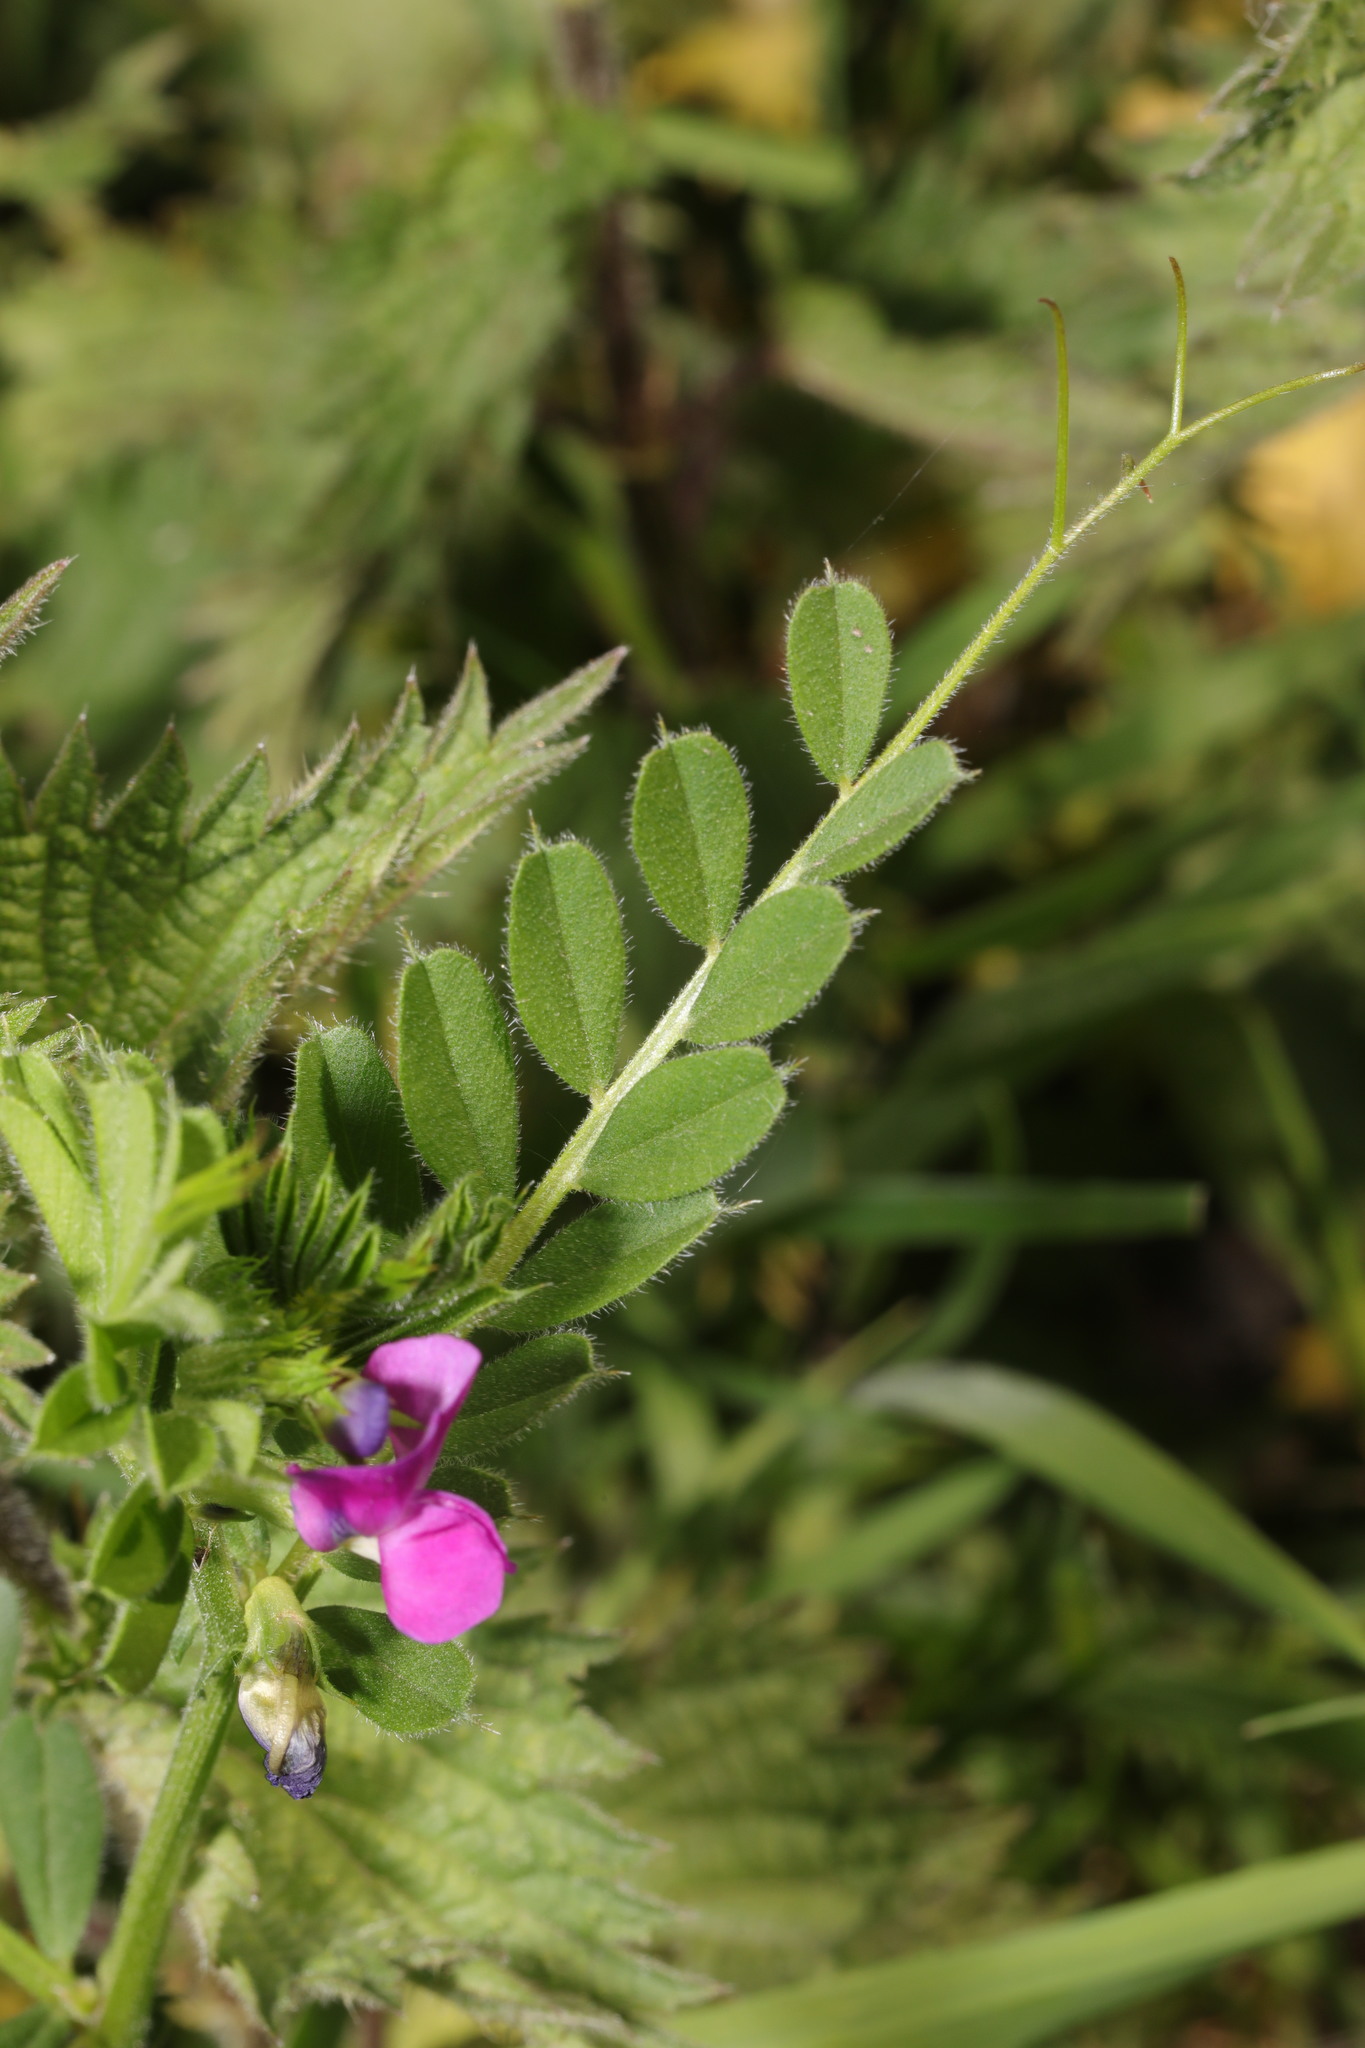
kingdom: Plantae
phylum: Tracheophyta
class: Magnoliopsida
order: Fabales
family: Fabaceae
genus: Vicia
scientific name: Vicia sativa
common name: Garden vetch
